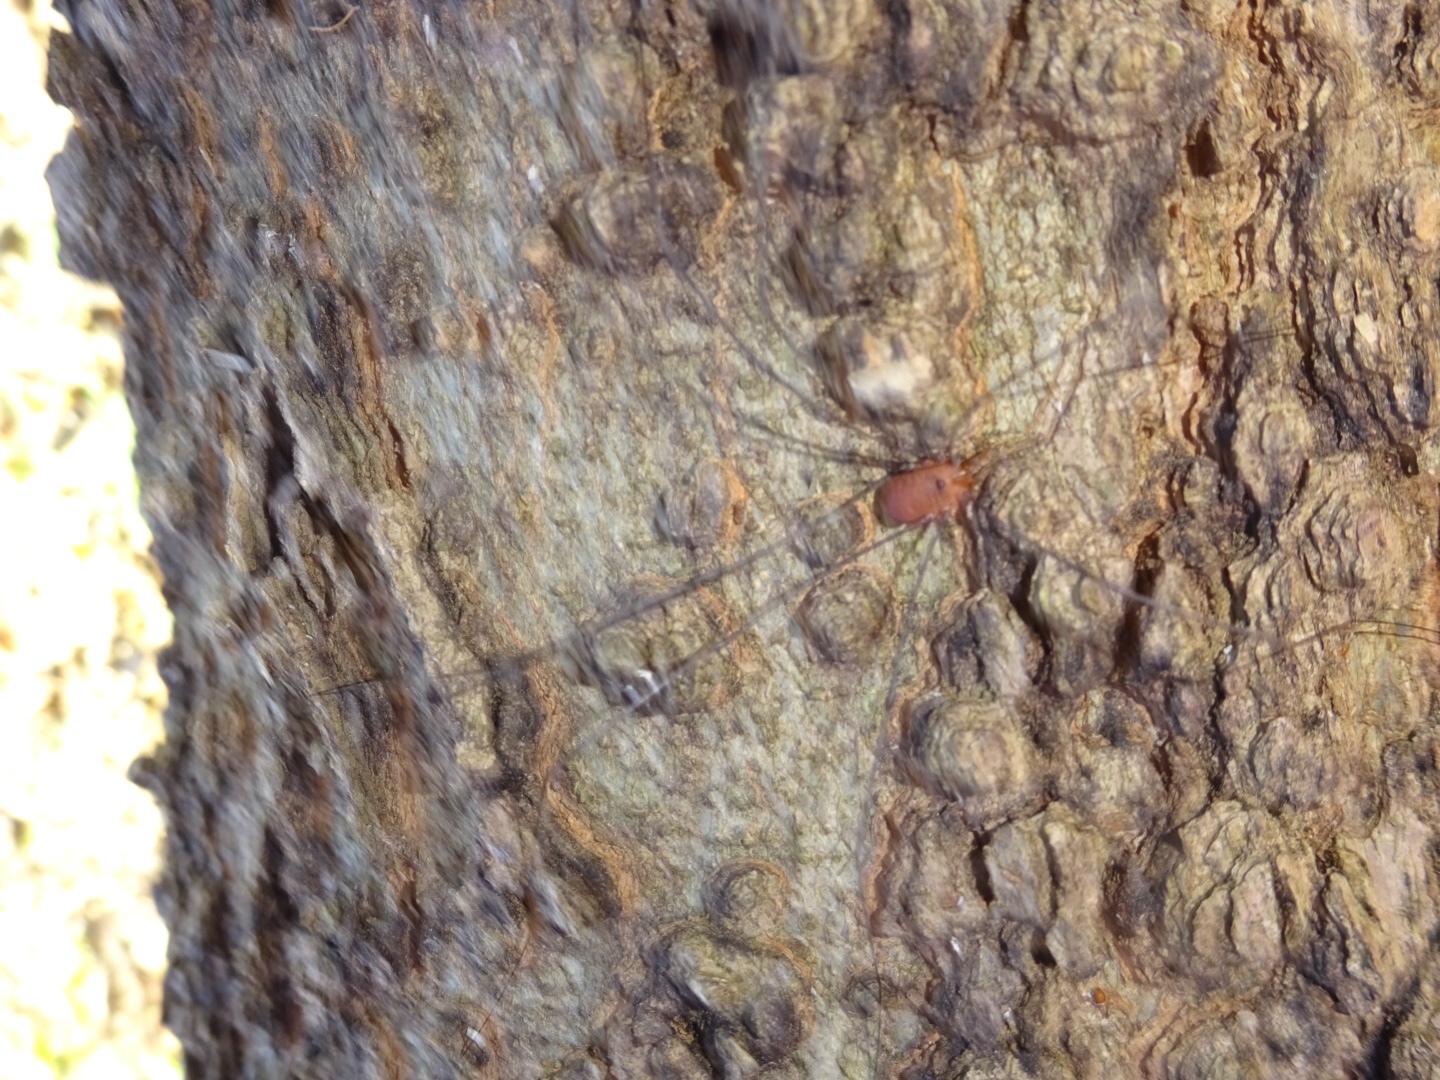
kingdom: Animalia
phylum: Arthropoda
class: Arachnida
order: Opiliones
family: Sclerosomatidae
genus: Leiobunum
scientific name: Leiobunum uxorium
